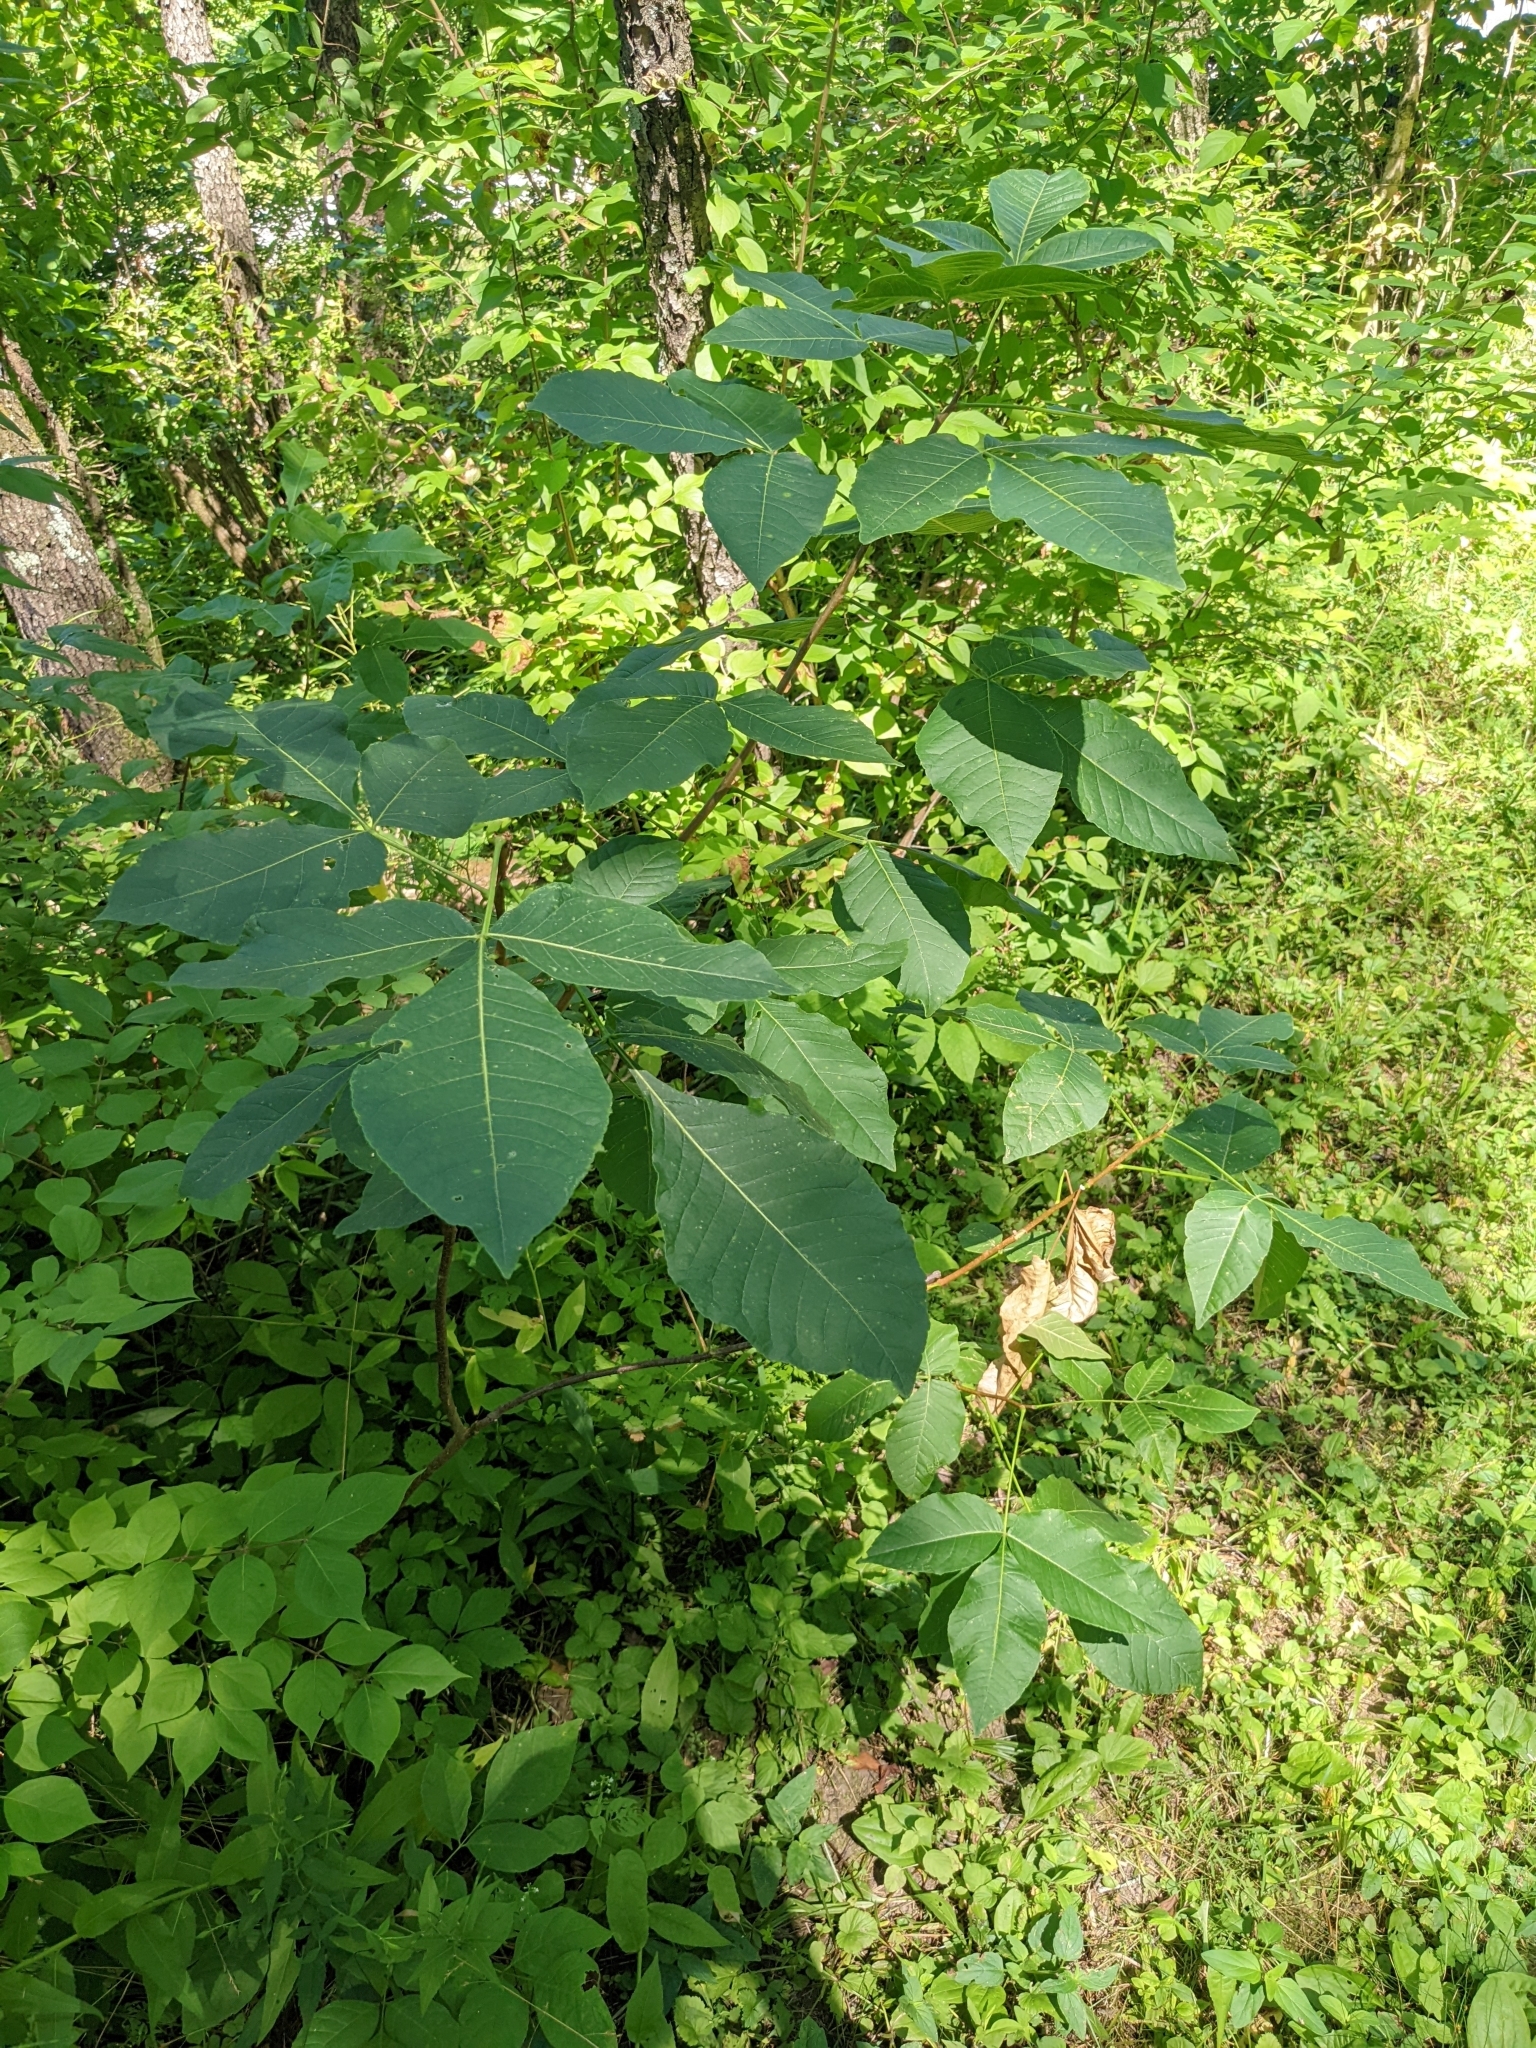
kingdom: Plantae
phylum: Tracheophyta
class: Magnoliopsida
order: Sapindales
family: Rutaceae
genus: Ptelea
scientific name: Ptelea trifoliata
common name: Common hop-tree
